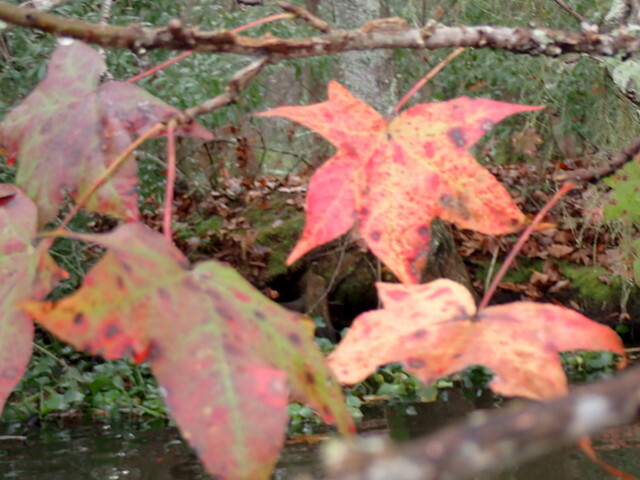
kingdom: Plantae
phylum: Tracheophyta
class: Magnoliopsida
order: Saxifragales
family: Altingiaceae
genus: Liquidambar
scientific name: Liquidambar styraciflua
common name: Sweet gum
